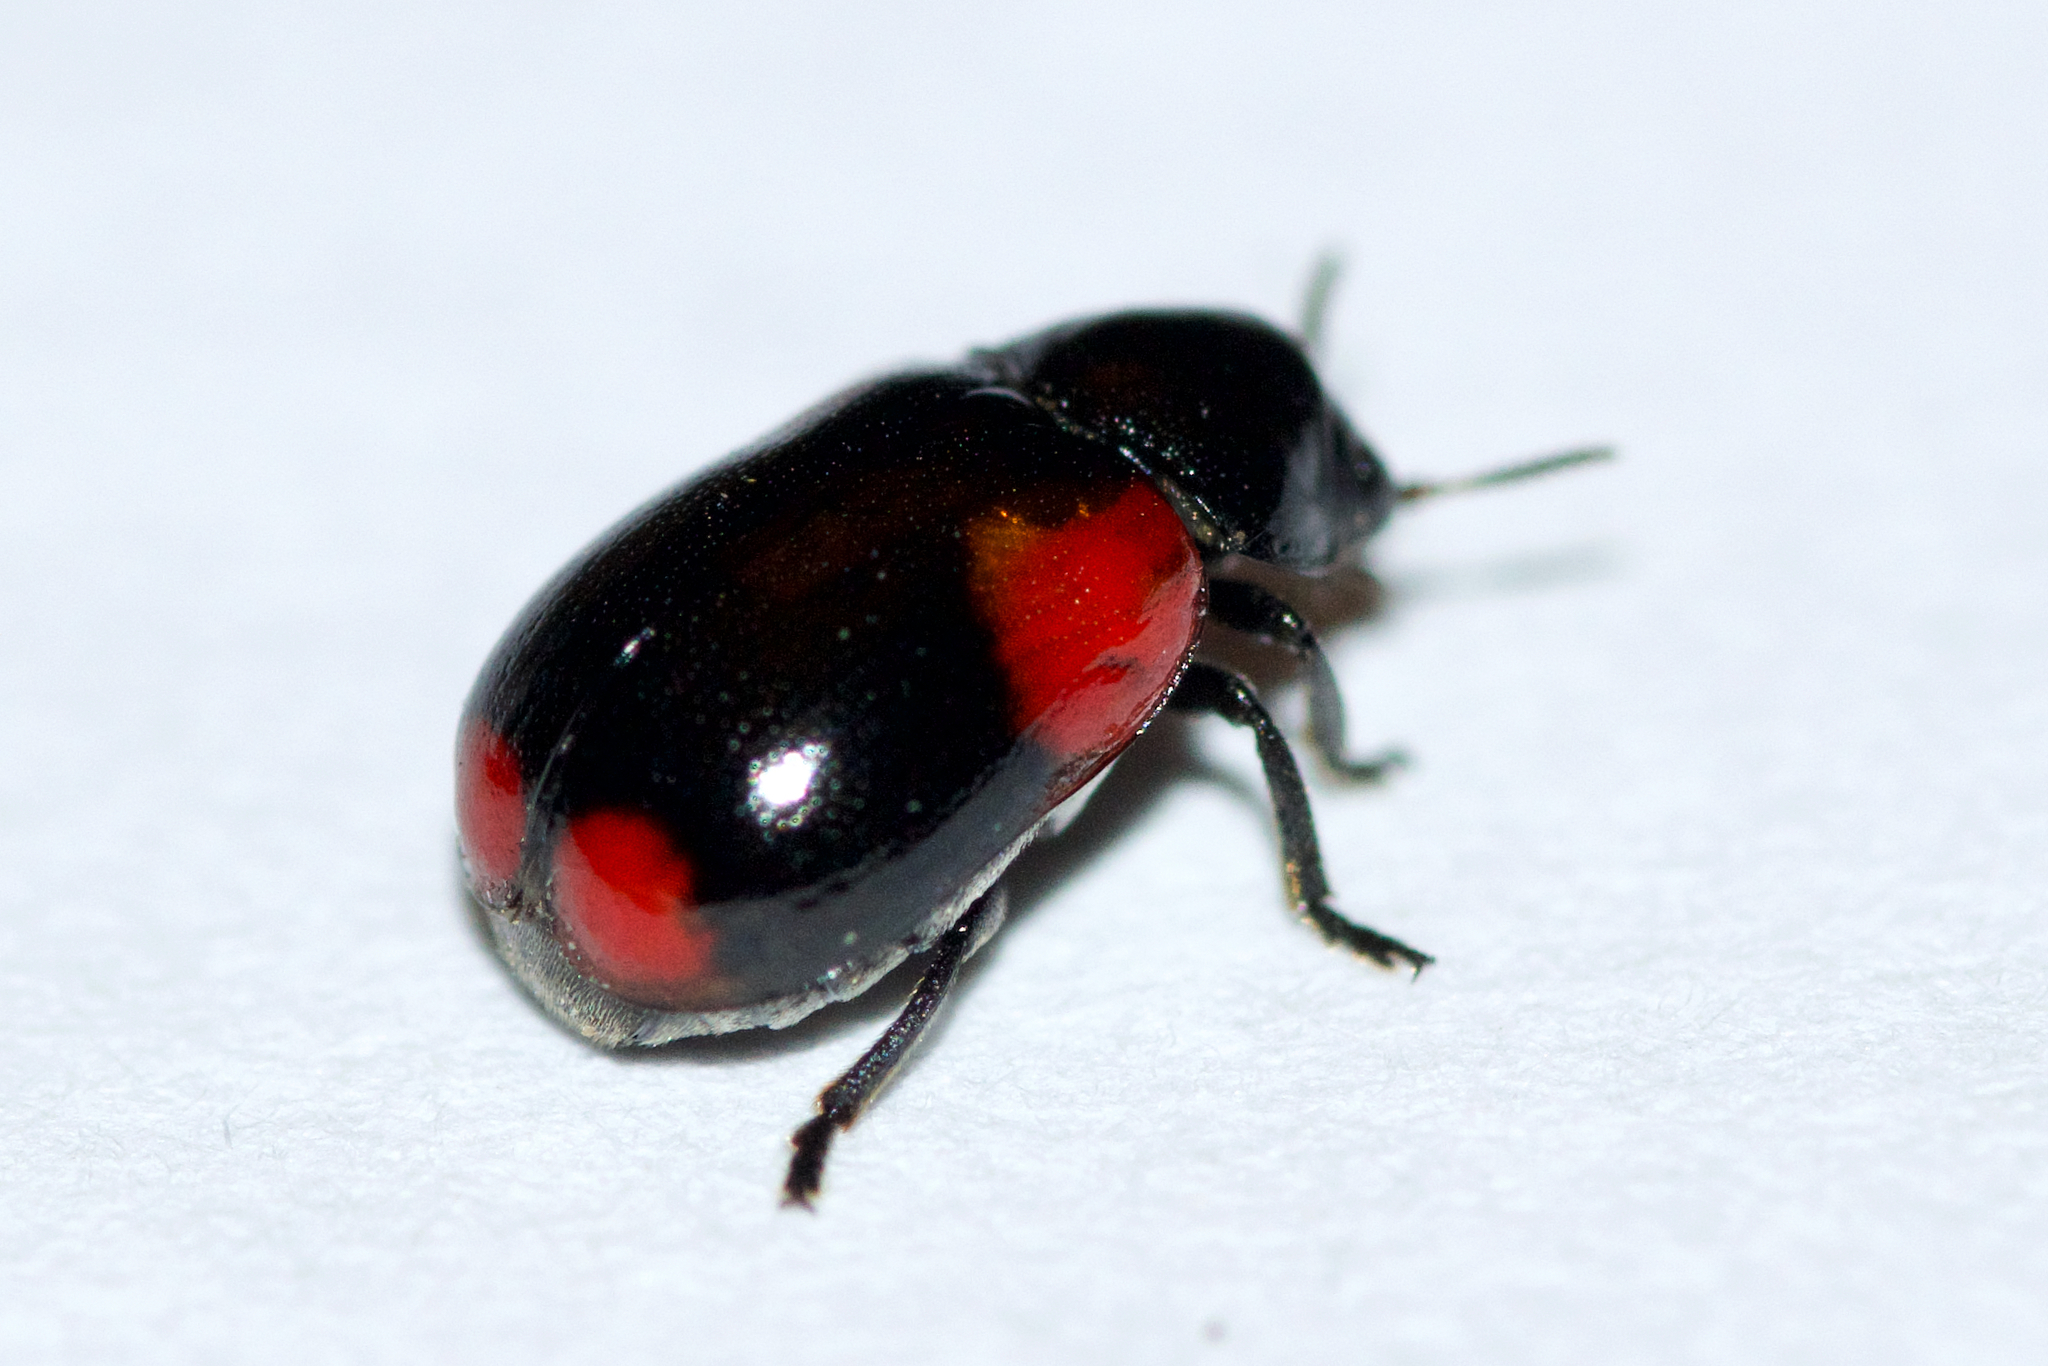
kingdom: Animalia
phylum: Arthropoda
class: Insecta
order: Coleoptera
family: Chrysomelidae
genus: Babia
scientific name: Babia quadriguttata
